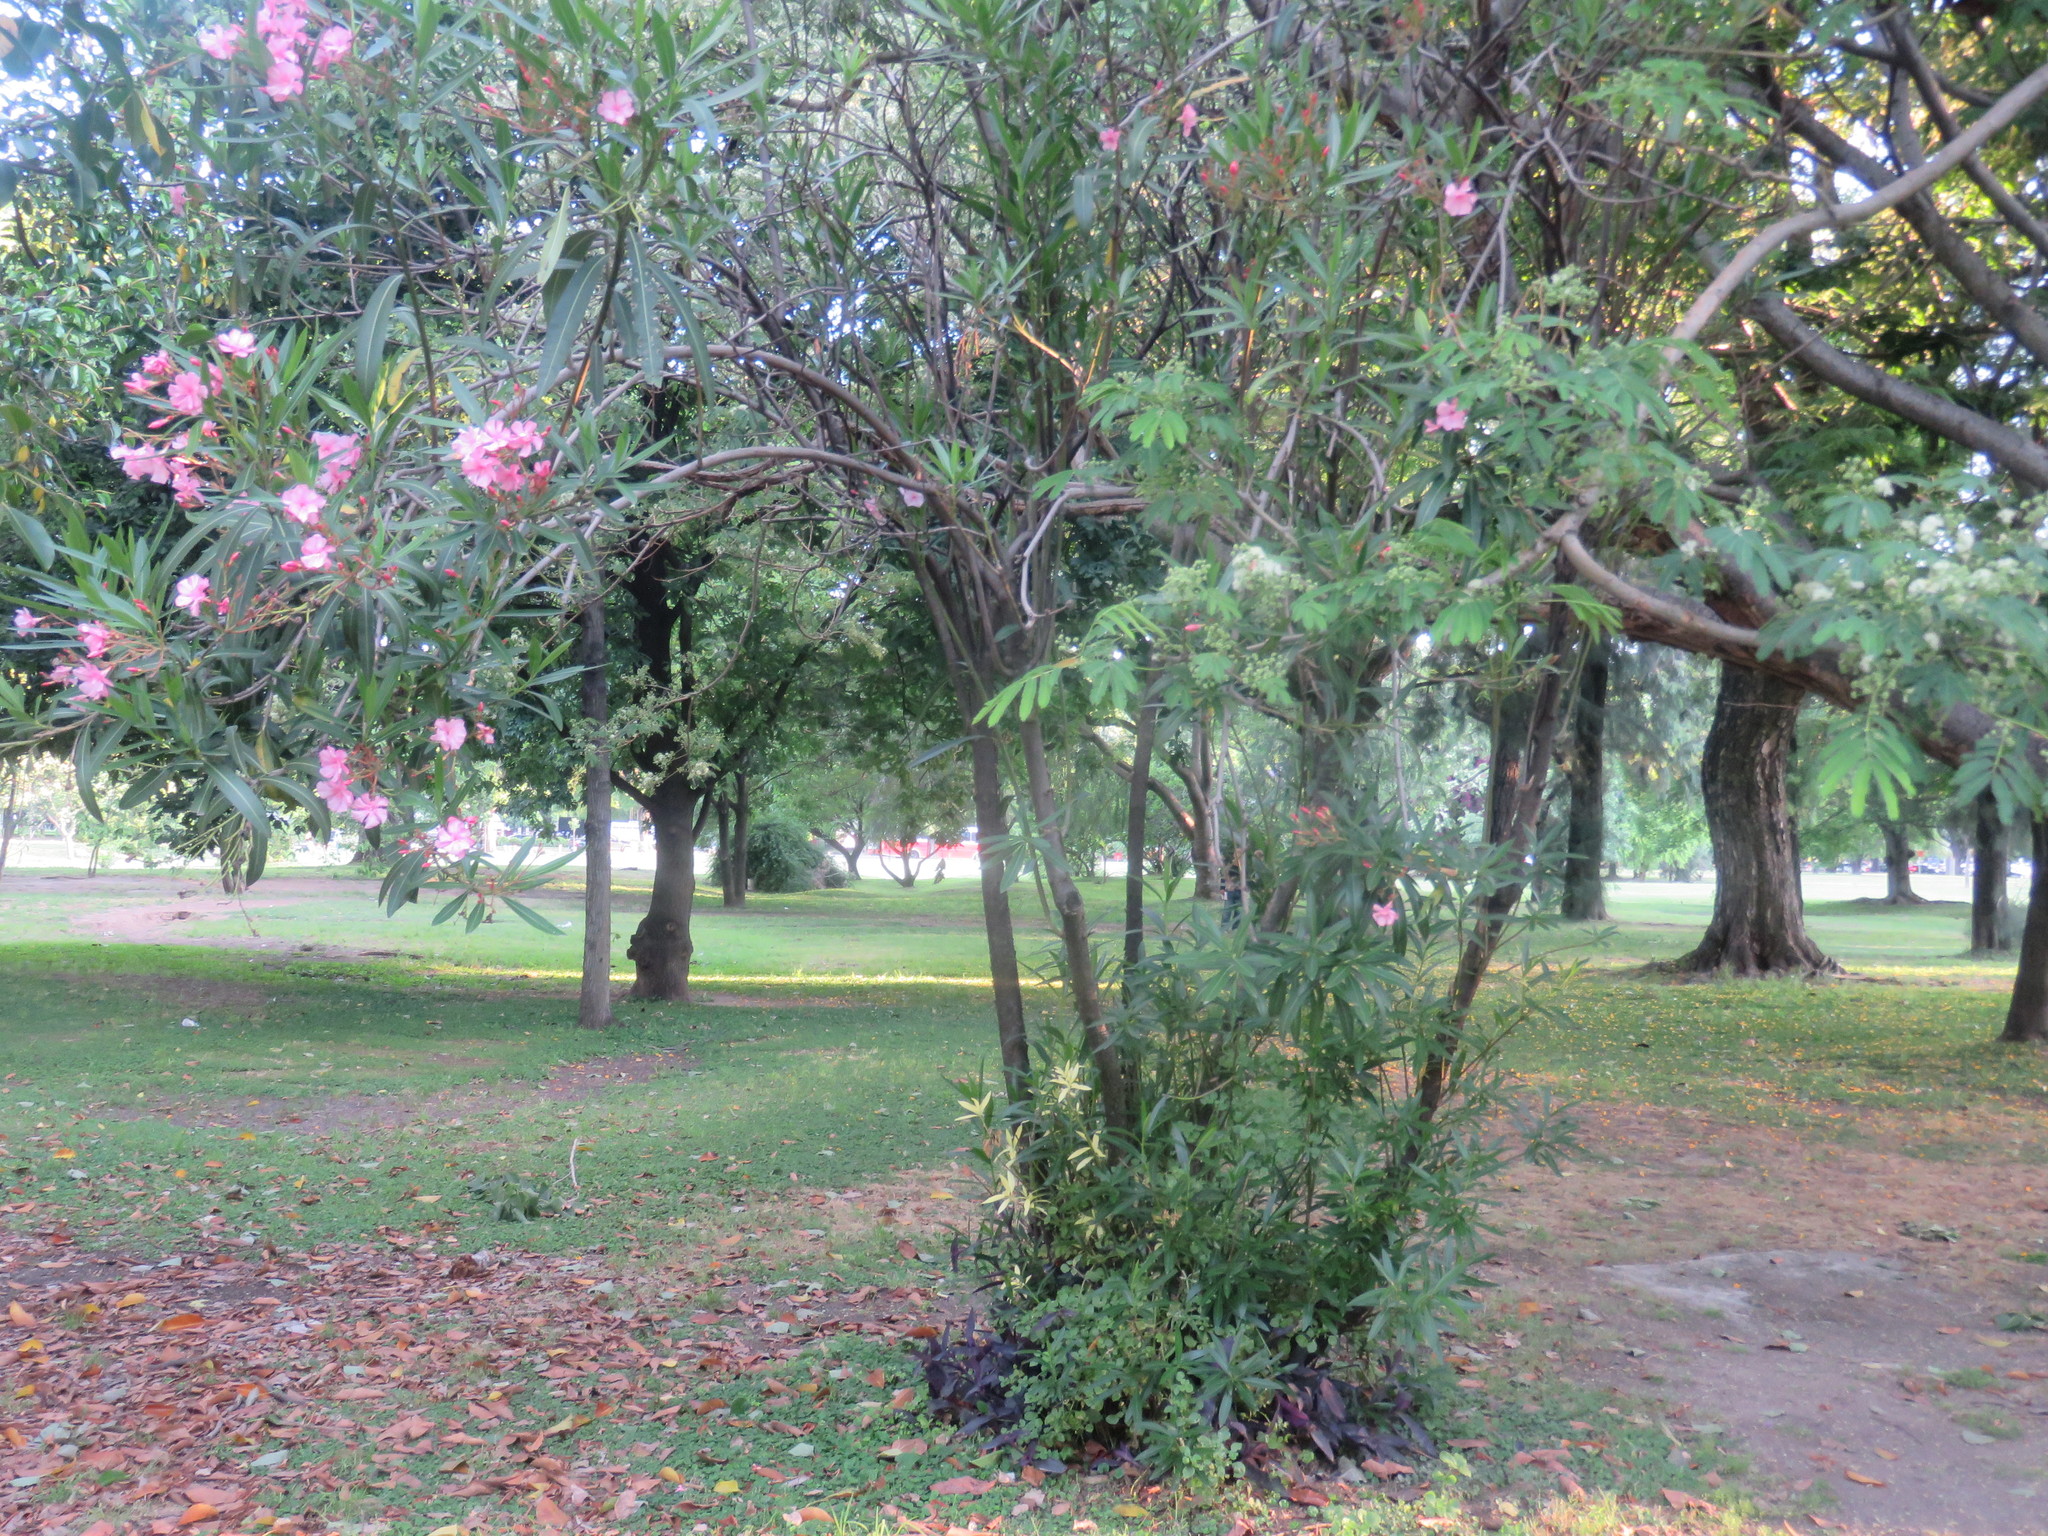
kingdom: Plantae
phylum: Tracheophyta
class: Magnoliopsida
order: Gentianales
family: Apocynaceae
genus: Nerium
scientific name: Nerium oleander
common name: Oleander
